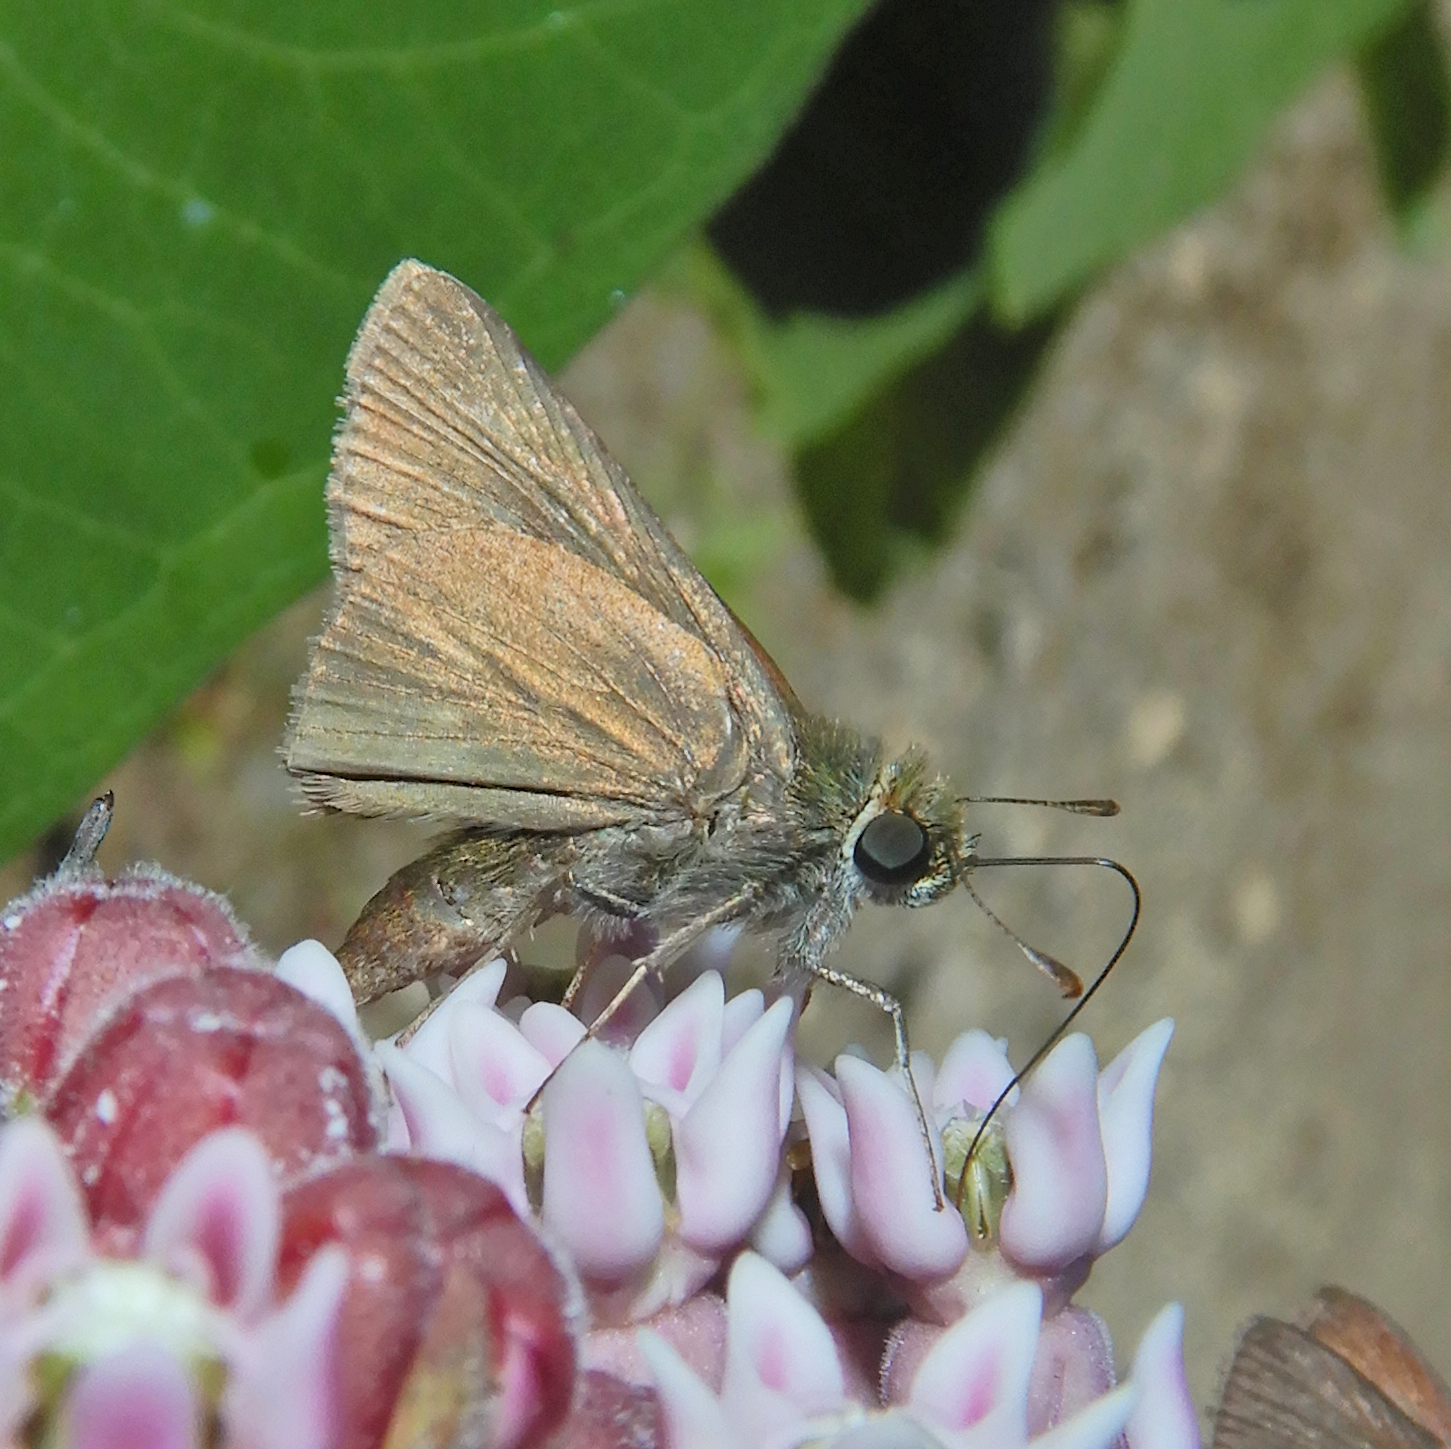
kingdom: Animalia
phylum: Arthropoda
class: Insecta
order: Lepidoptera
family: Hesperiidae
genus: Euphyes
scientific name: Euphyes vestris
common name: Dun skipper
